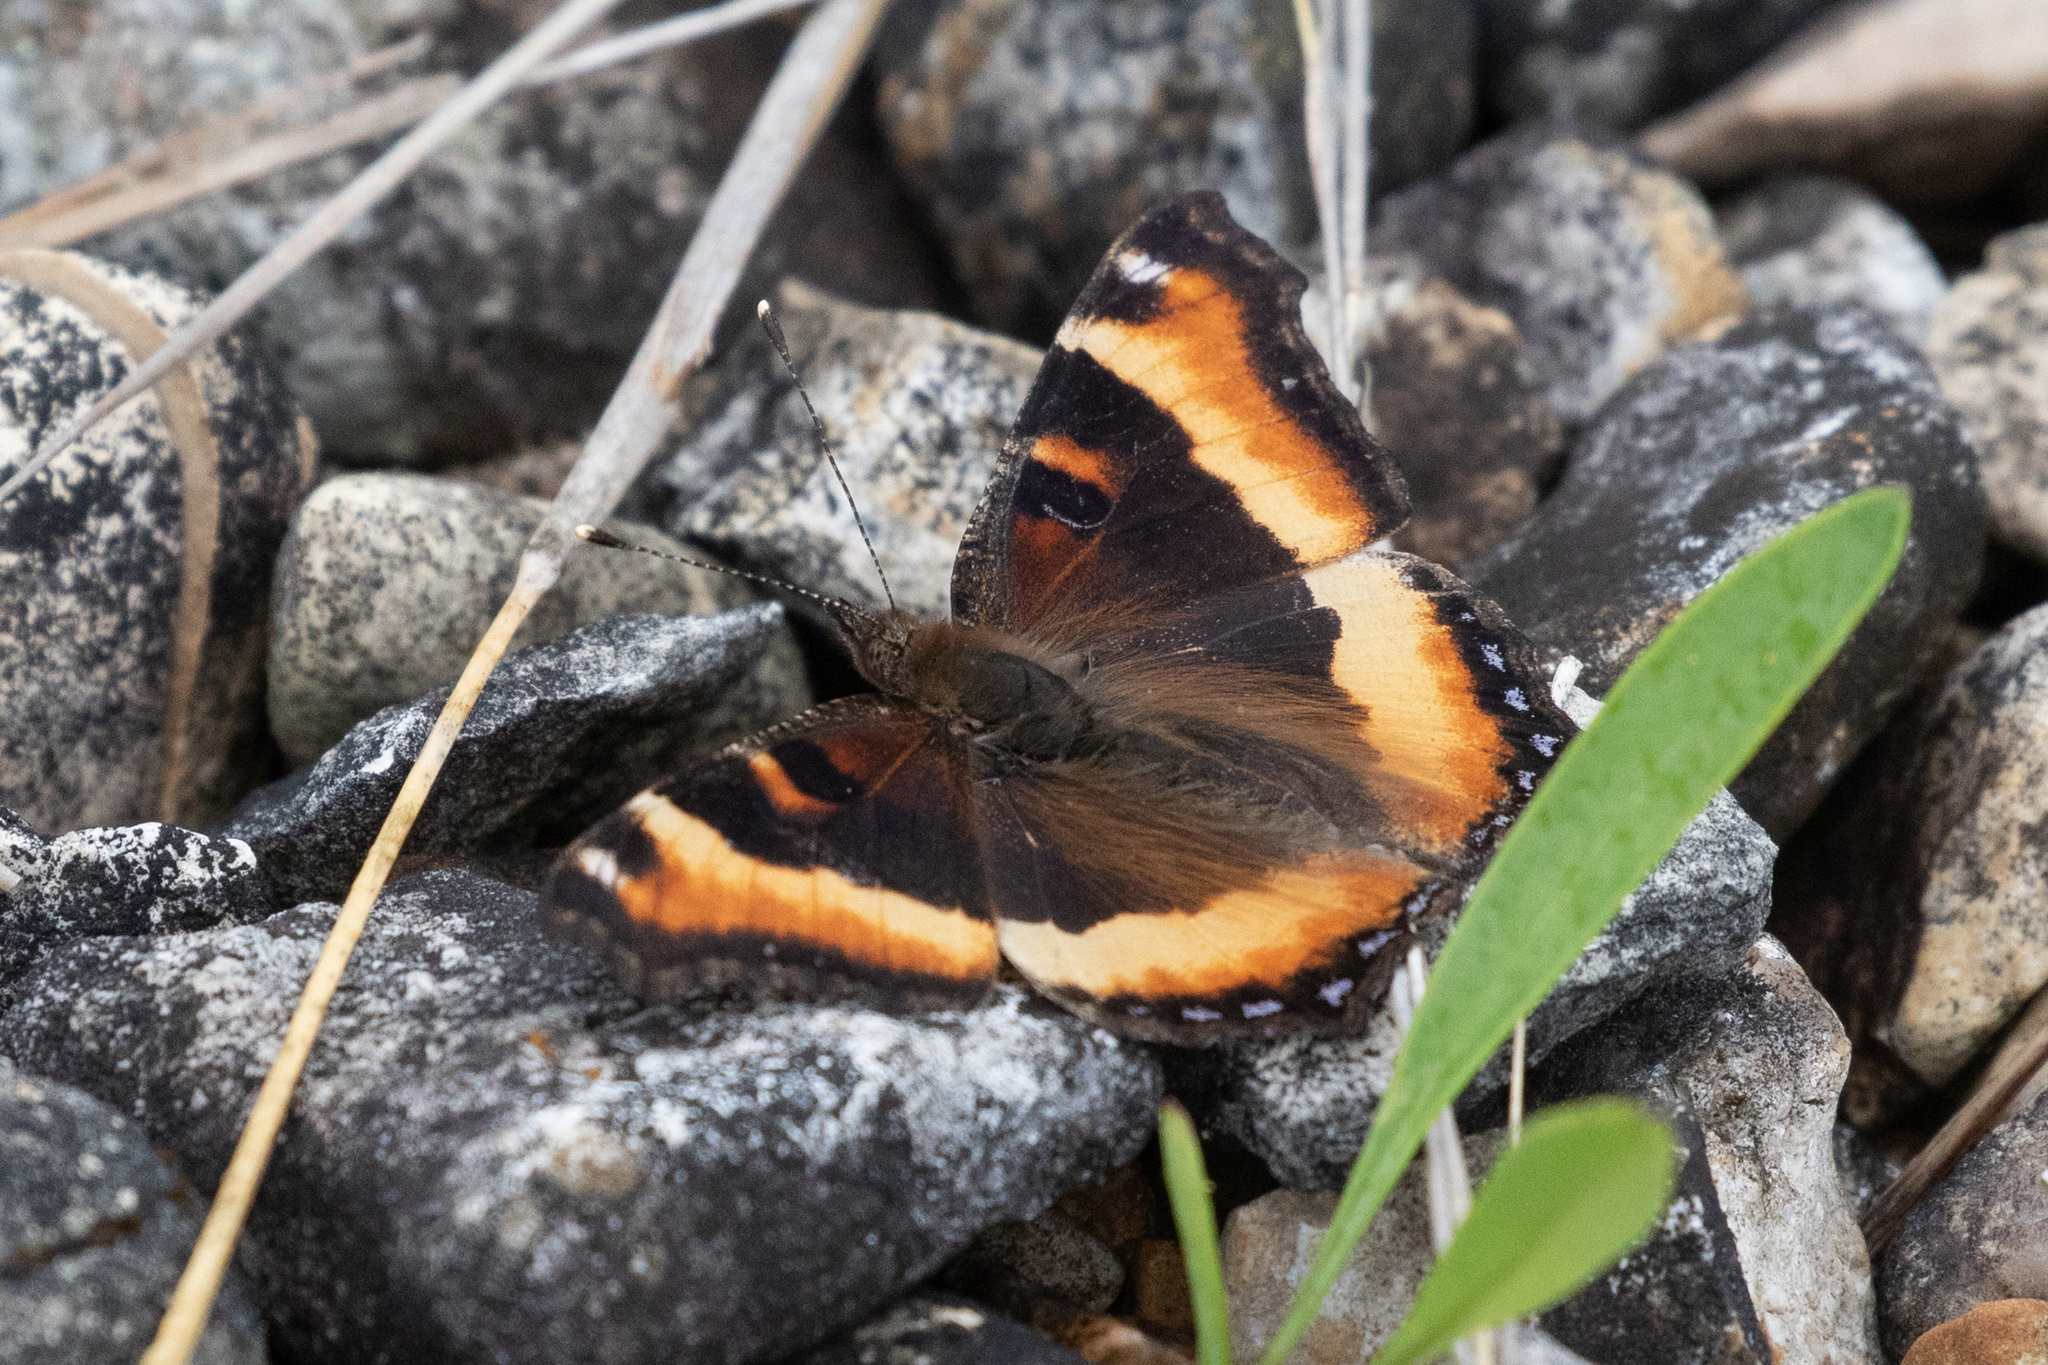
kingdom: Animalia
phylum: Arthropoda
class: Insecta
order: Lepidoptera
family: Nymphalidae
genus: Aglais
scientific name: Aglais milberti
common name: Milbert's tortoiseshell
